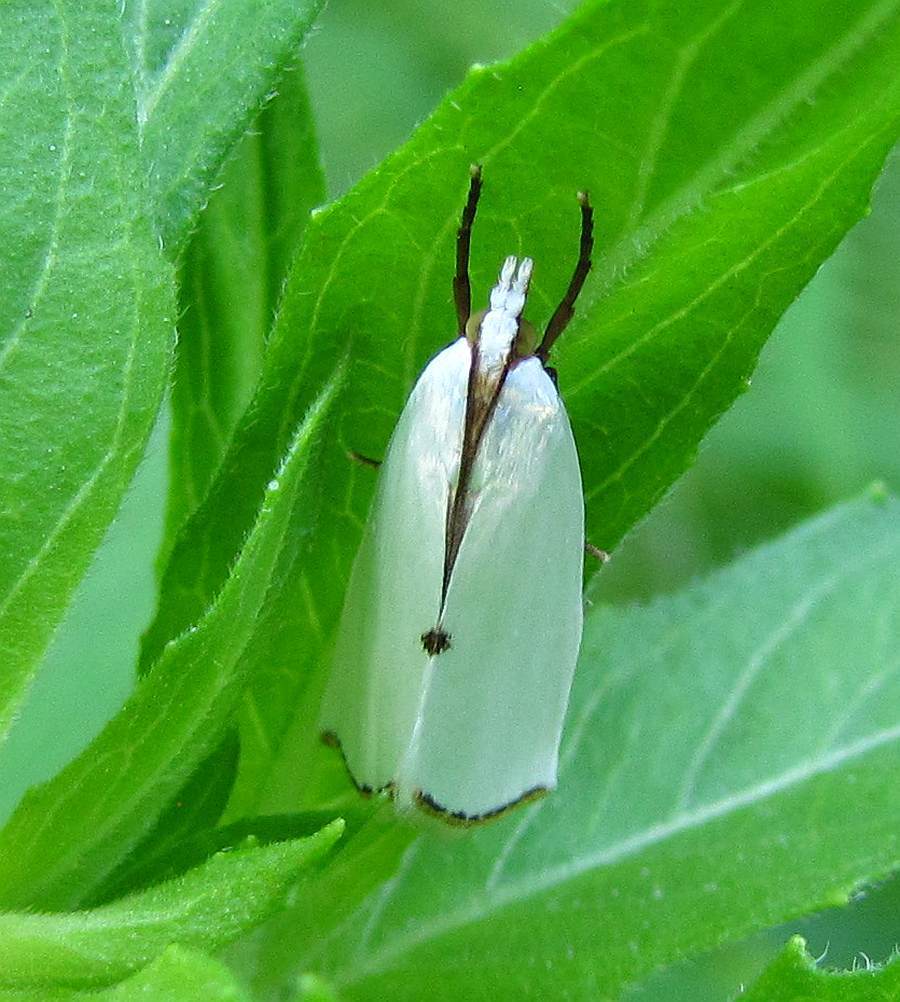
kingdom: Animalia
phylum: Arthropoda
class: Insecta
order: Lepidoptera
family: Crambidae
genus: Argyria
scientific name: Argyria nivalis
